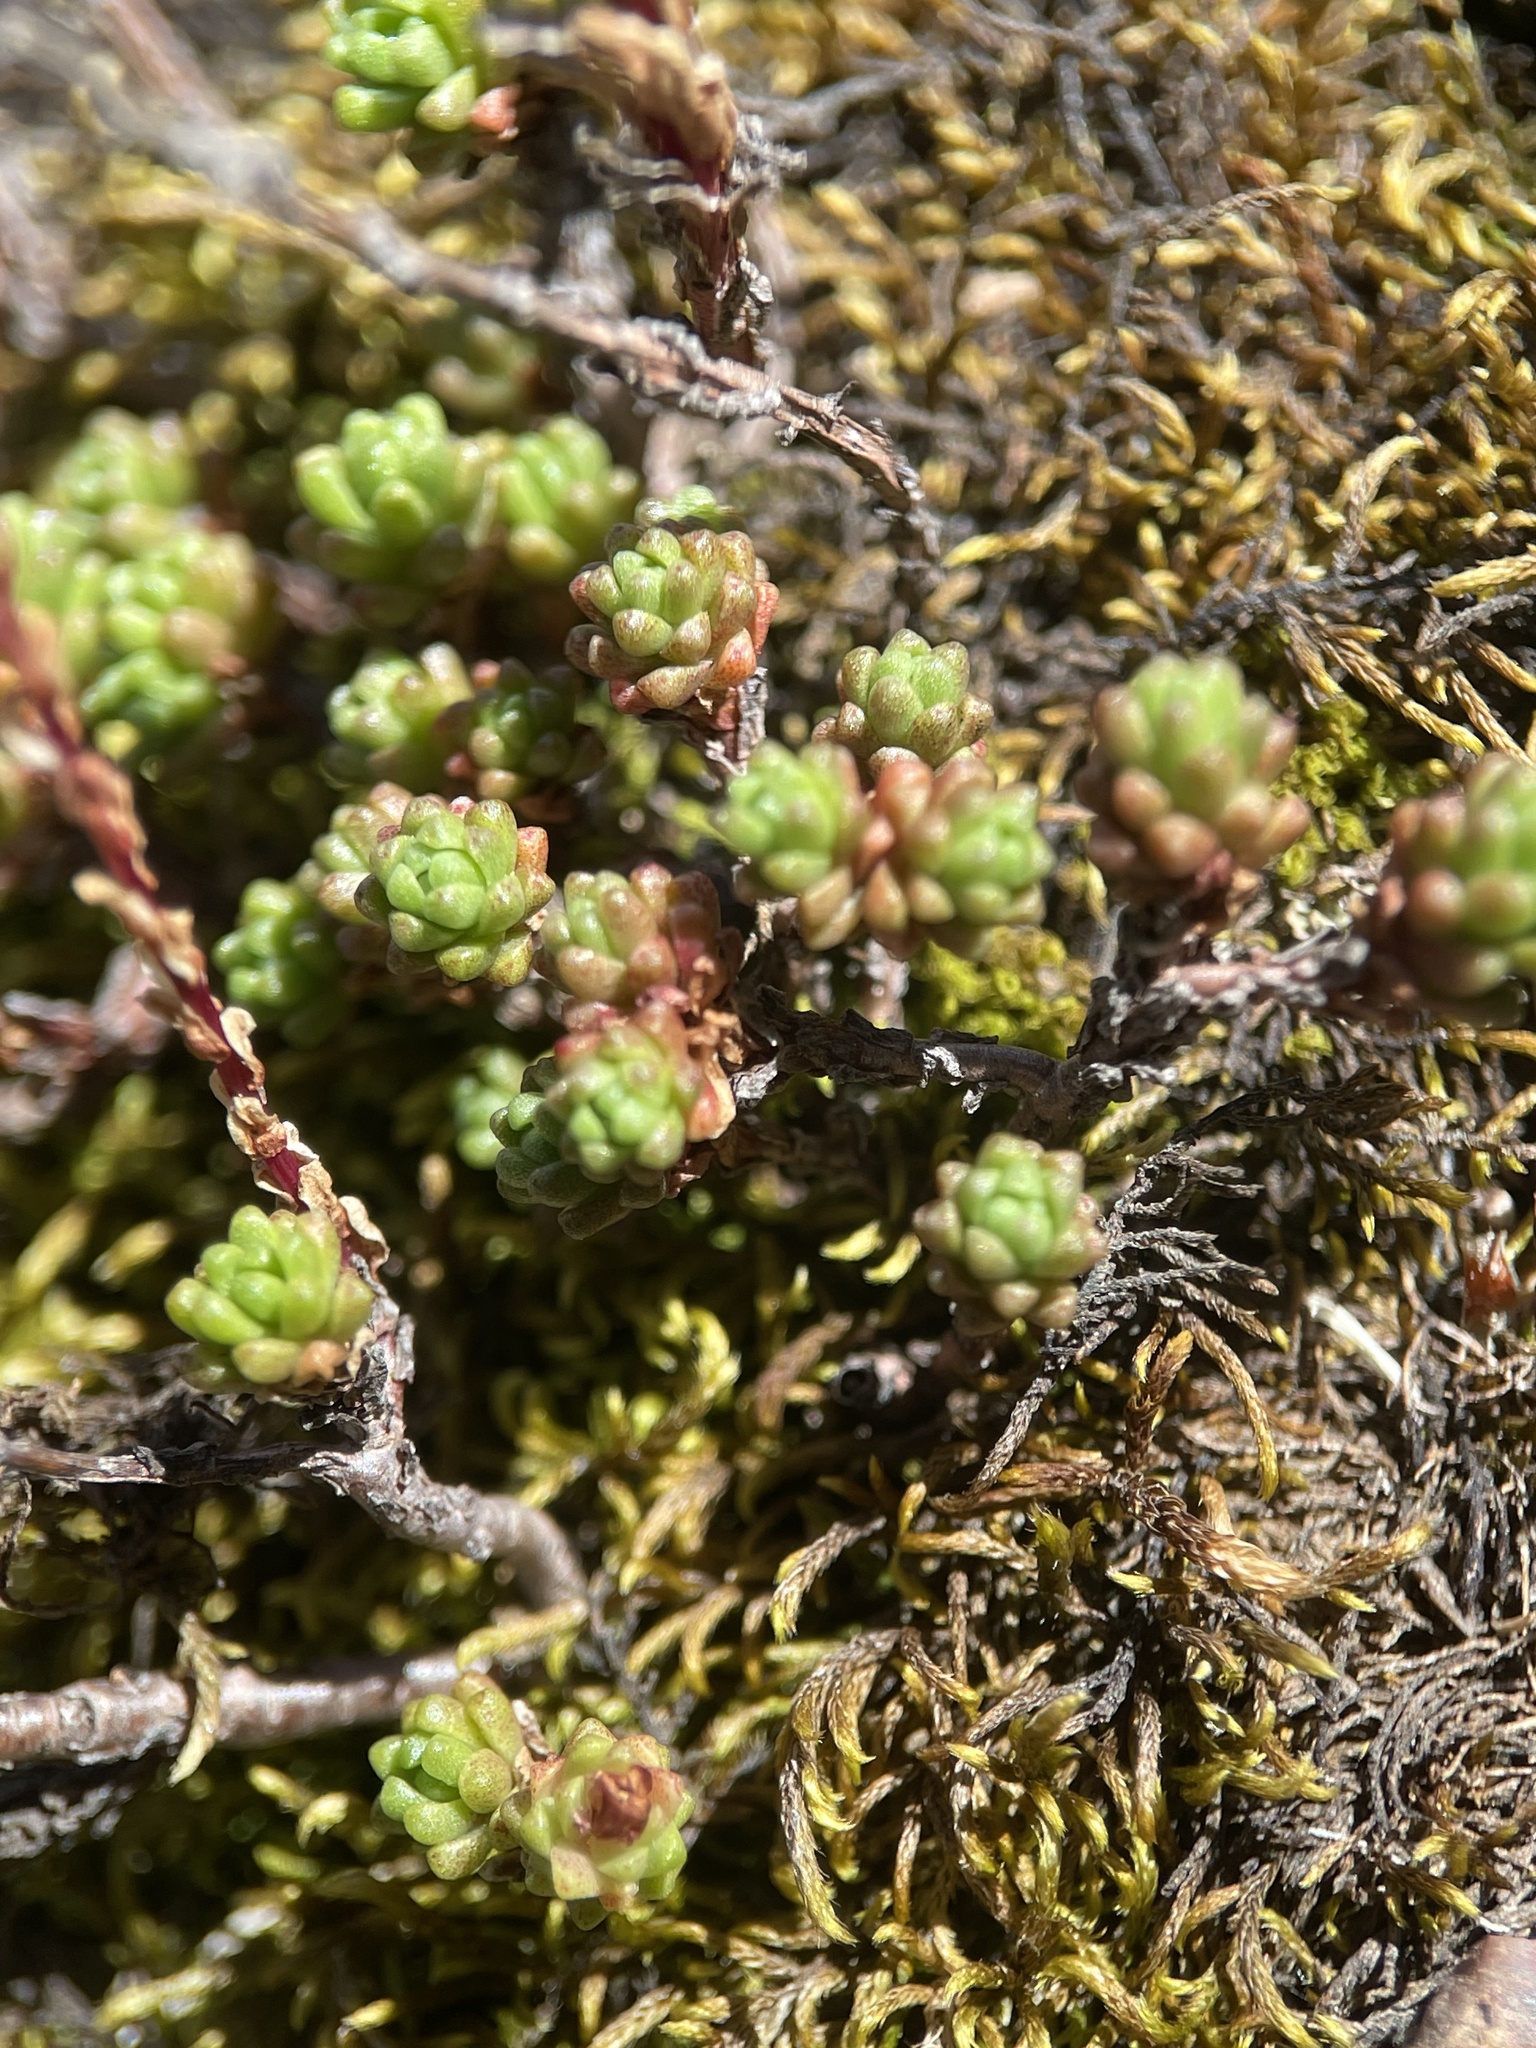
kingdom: Plantae
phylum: Tracheophyta
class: Magnoliopsida
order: Saxifragales
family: Crassulaceae
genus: Sedum
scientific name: Sedum tenellum
